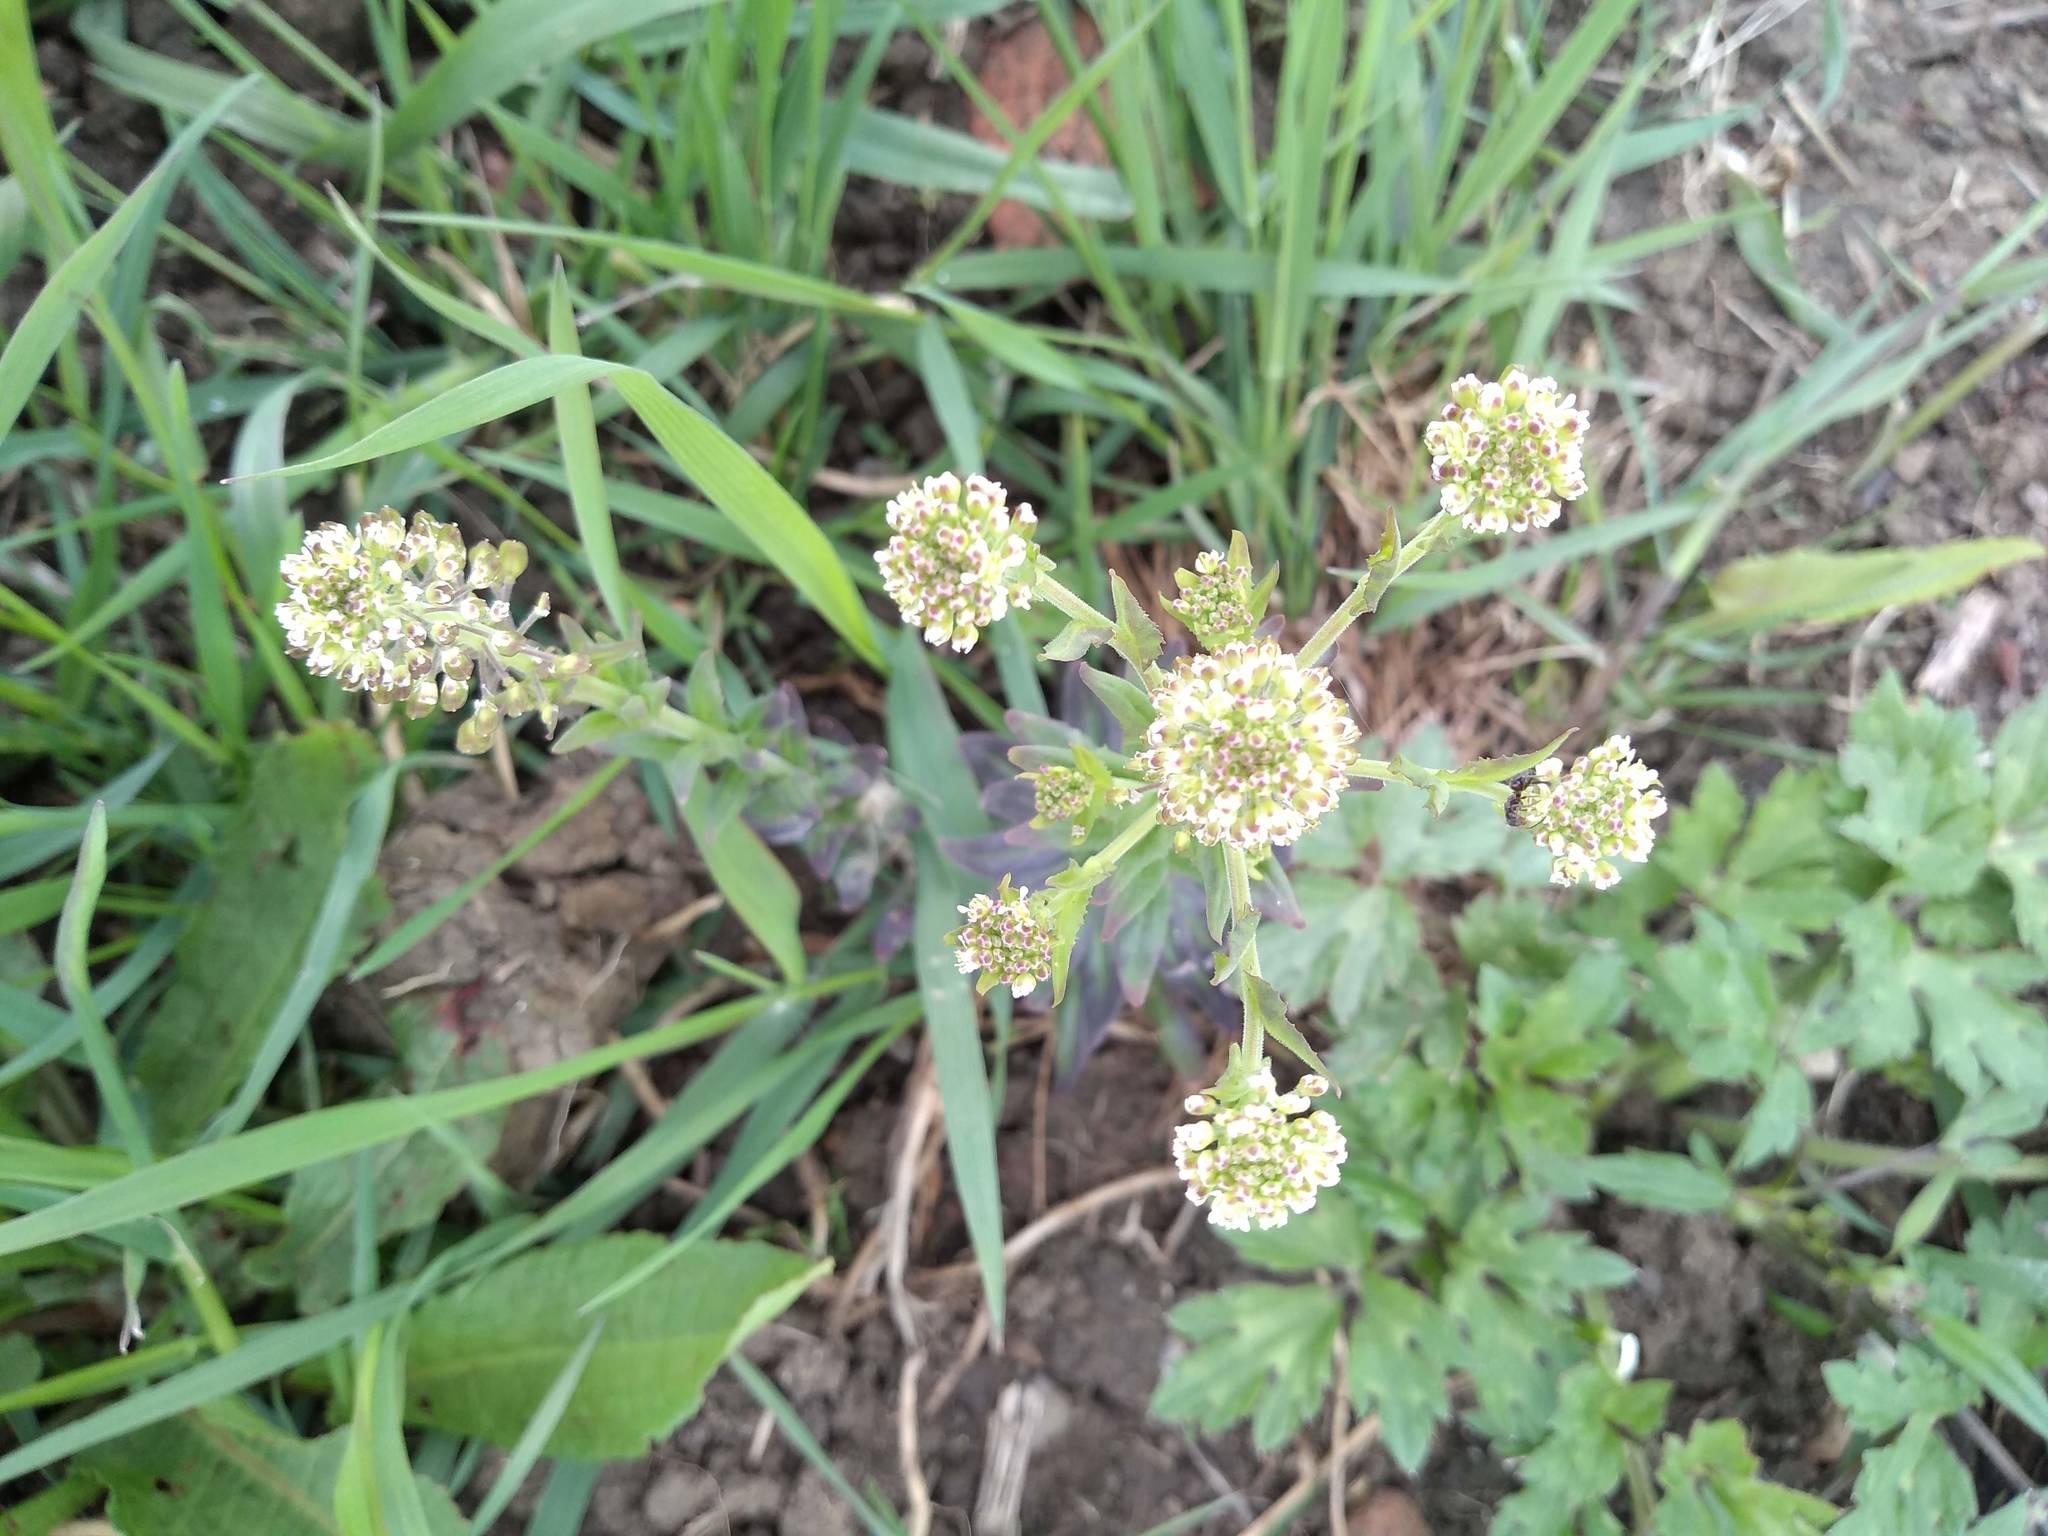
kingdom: Plantae
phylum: Tracheophyta
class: Magnoliopsida
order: Brassicales
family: Brassicaceae
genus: Lepidium
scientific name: Lepidium campestre
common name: Field pepperwort
